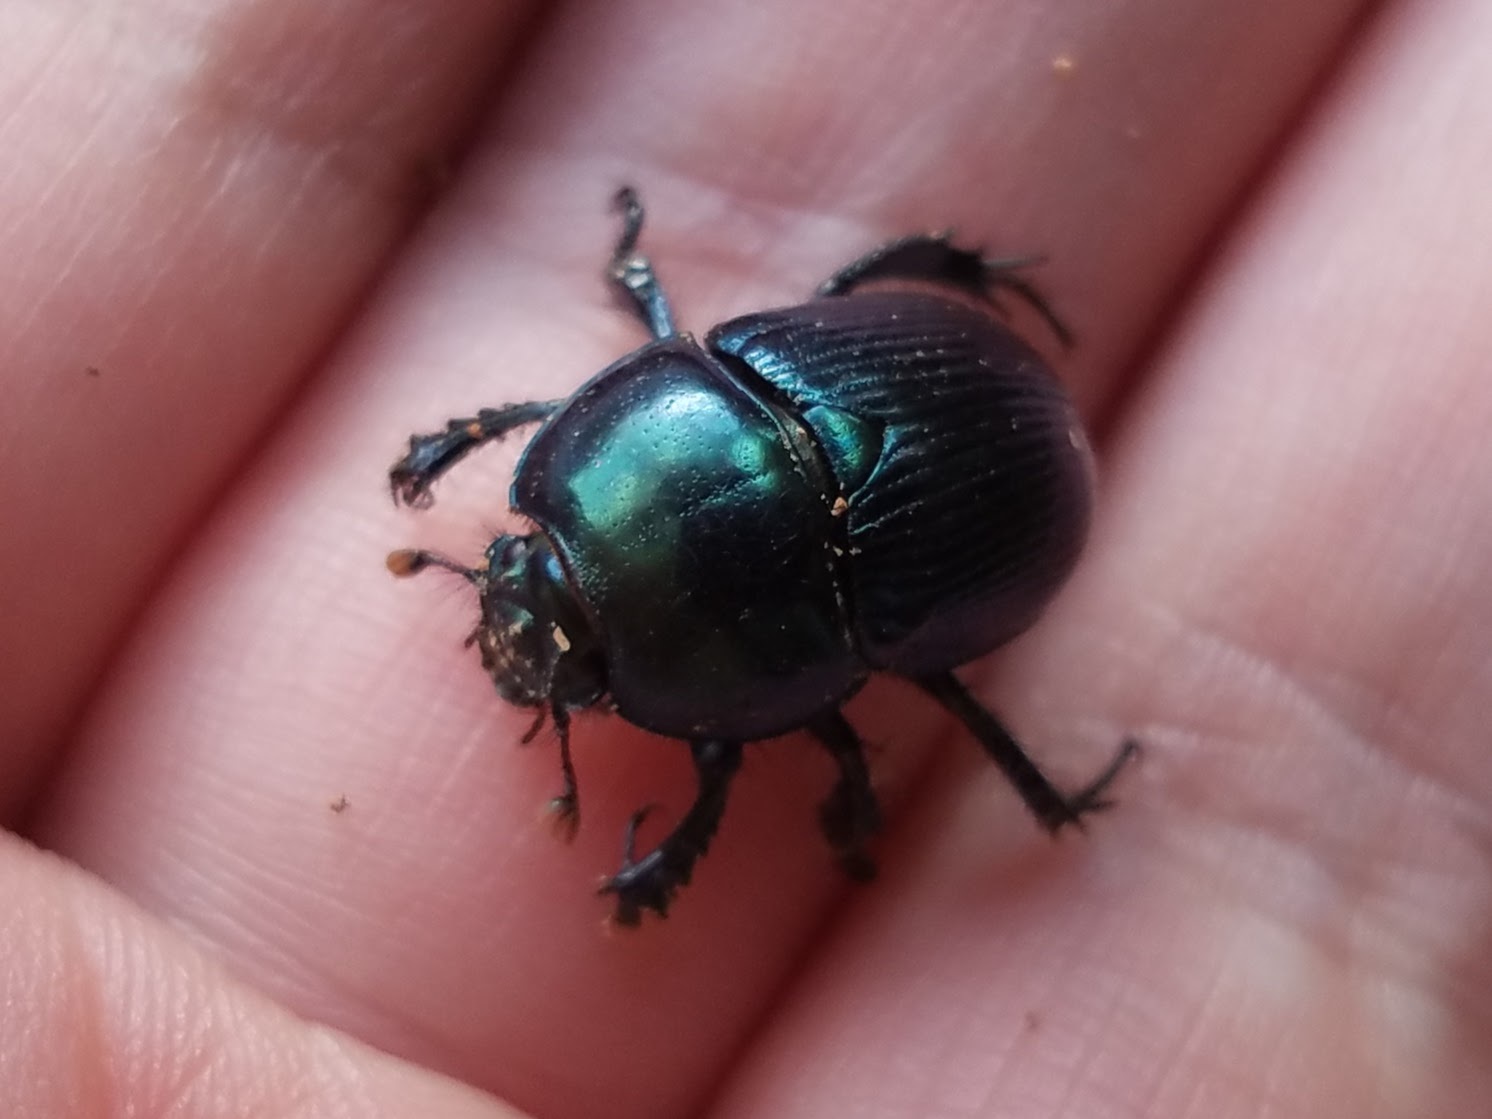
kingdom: Animalia
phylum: Arthropoda
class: Insecta
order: Coleoptera
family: Geotrupidae
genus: Geotrupes
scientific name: Geotrupes splendidus
